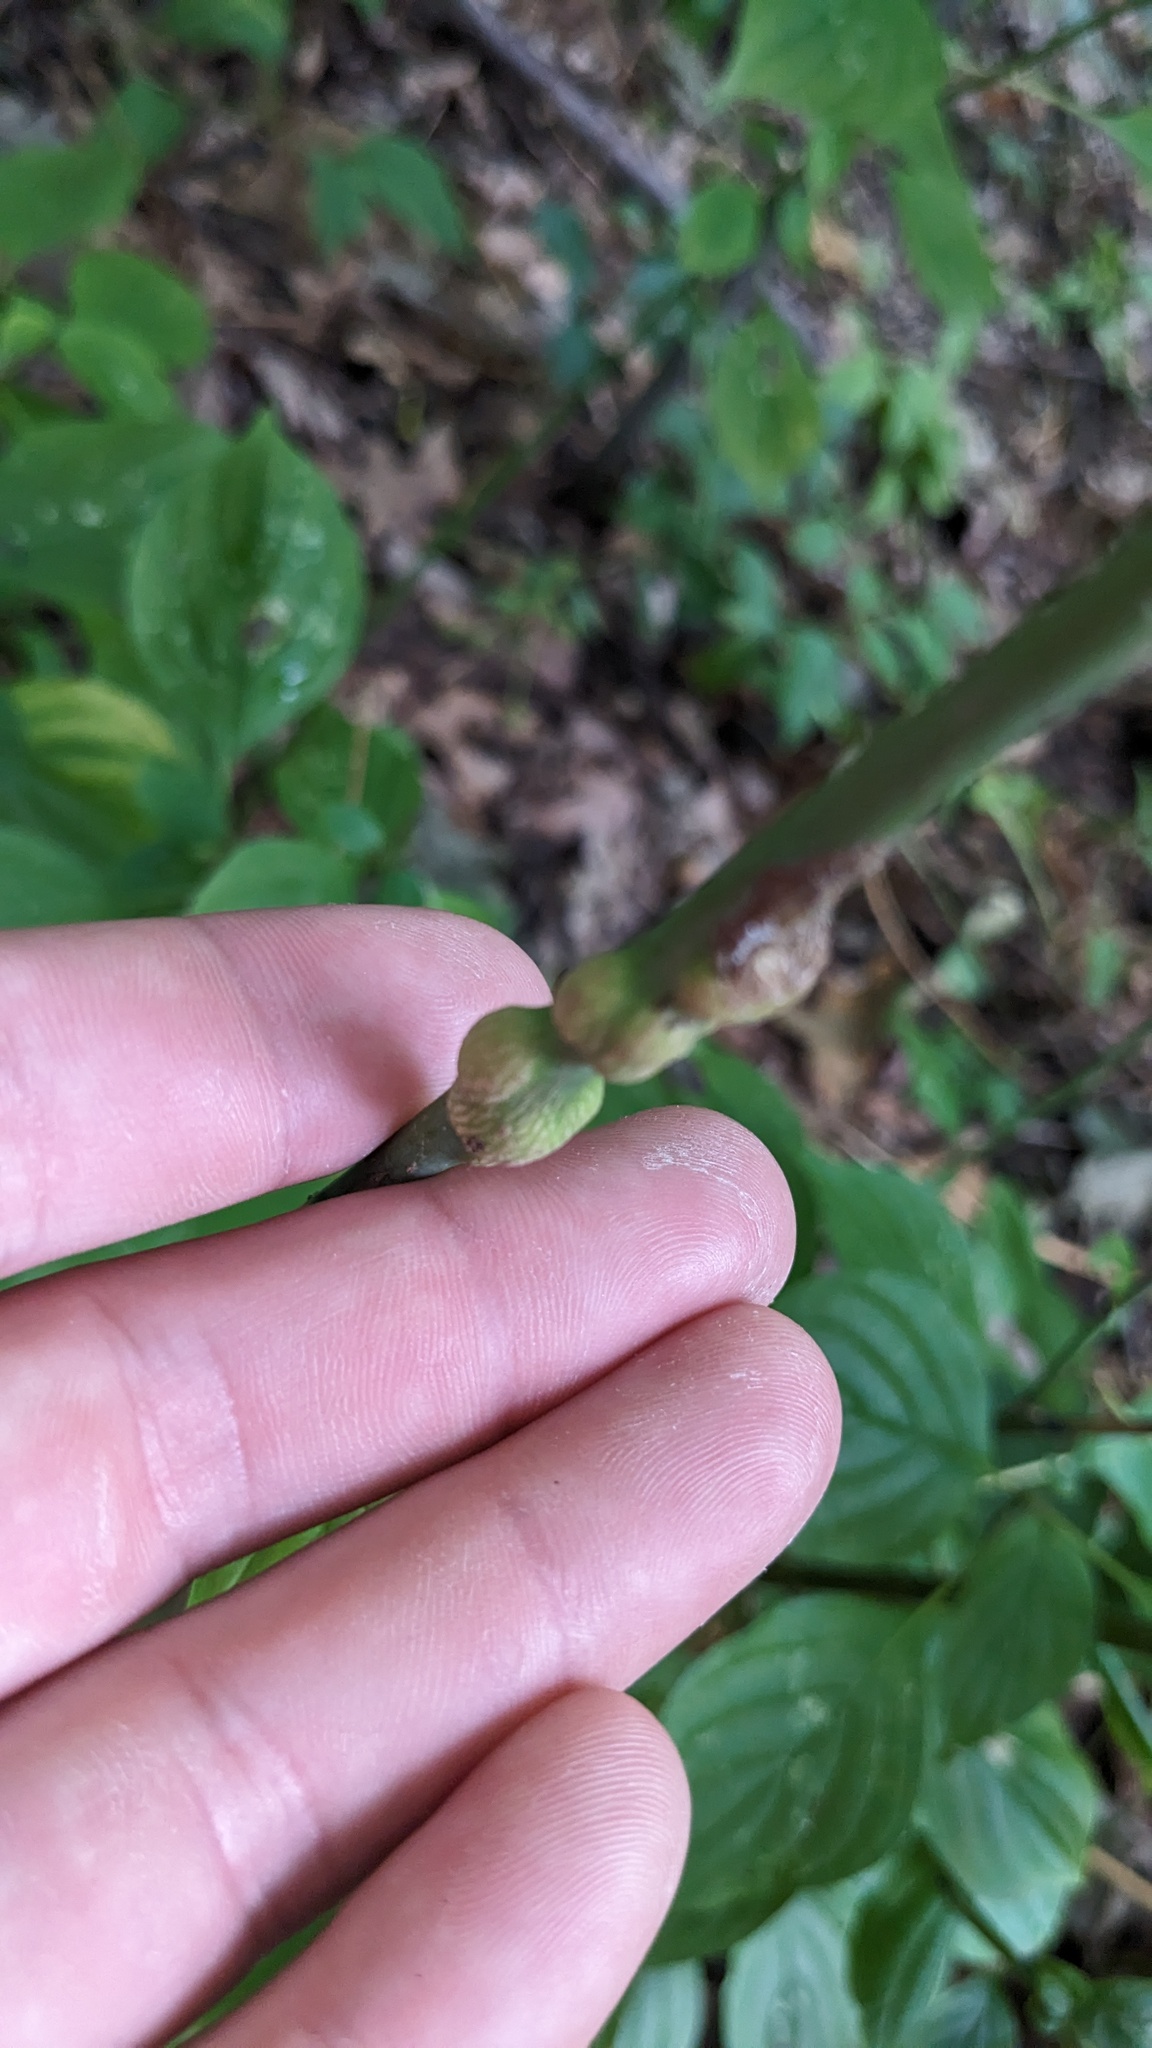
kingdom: Animalia
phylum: Arthropoda
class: Insecta
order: Diptera
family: Cecidomyiidae
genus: Neolasioptera
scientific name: Neolasioptera cornicola
